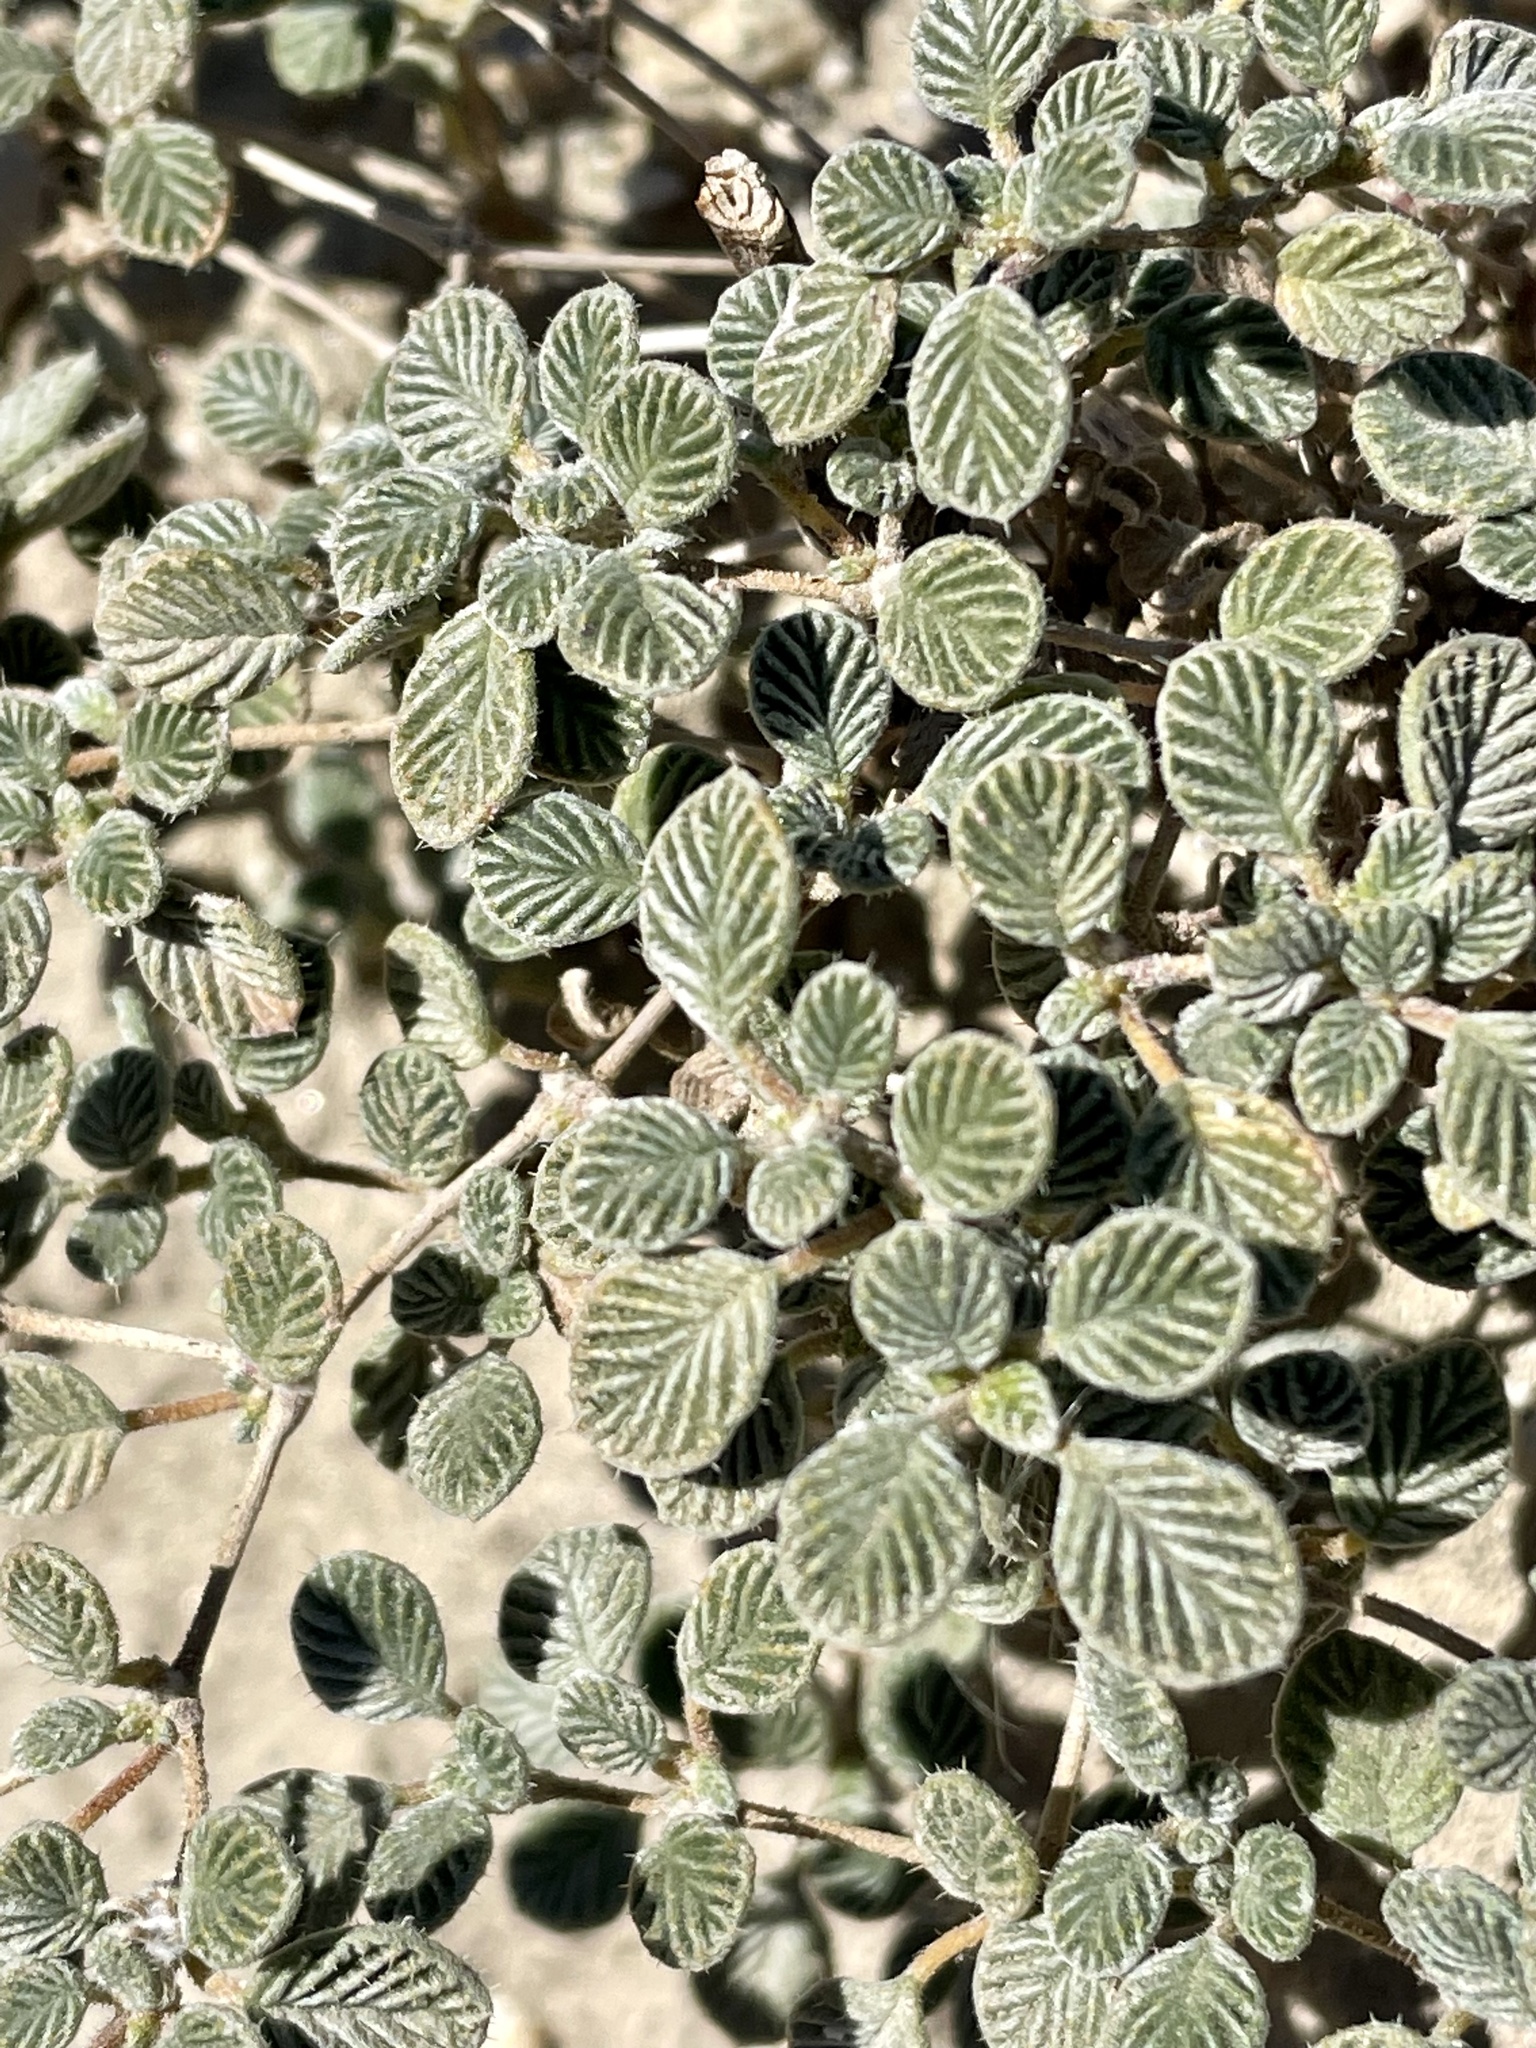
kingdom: Plantae
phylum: Tracheophyta
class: Magnoliopsida
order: Boraginales
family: Ehretiaceae
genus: Tiquilia
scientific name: Tiquilia plicata
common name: Fan-leaf tiquilia
